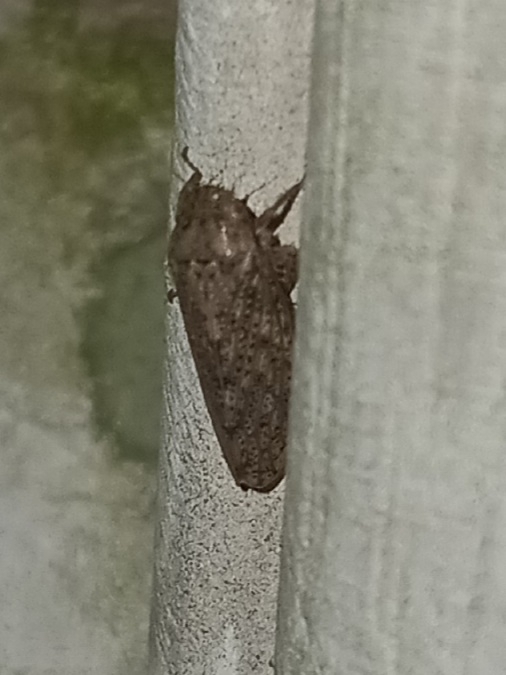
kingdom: Animalia
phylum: Arthropoda
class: Insecta
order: Hemiptera
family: Cicadellidae
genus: Curtara
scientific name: Curtara insularis
